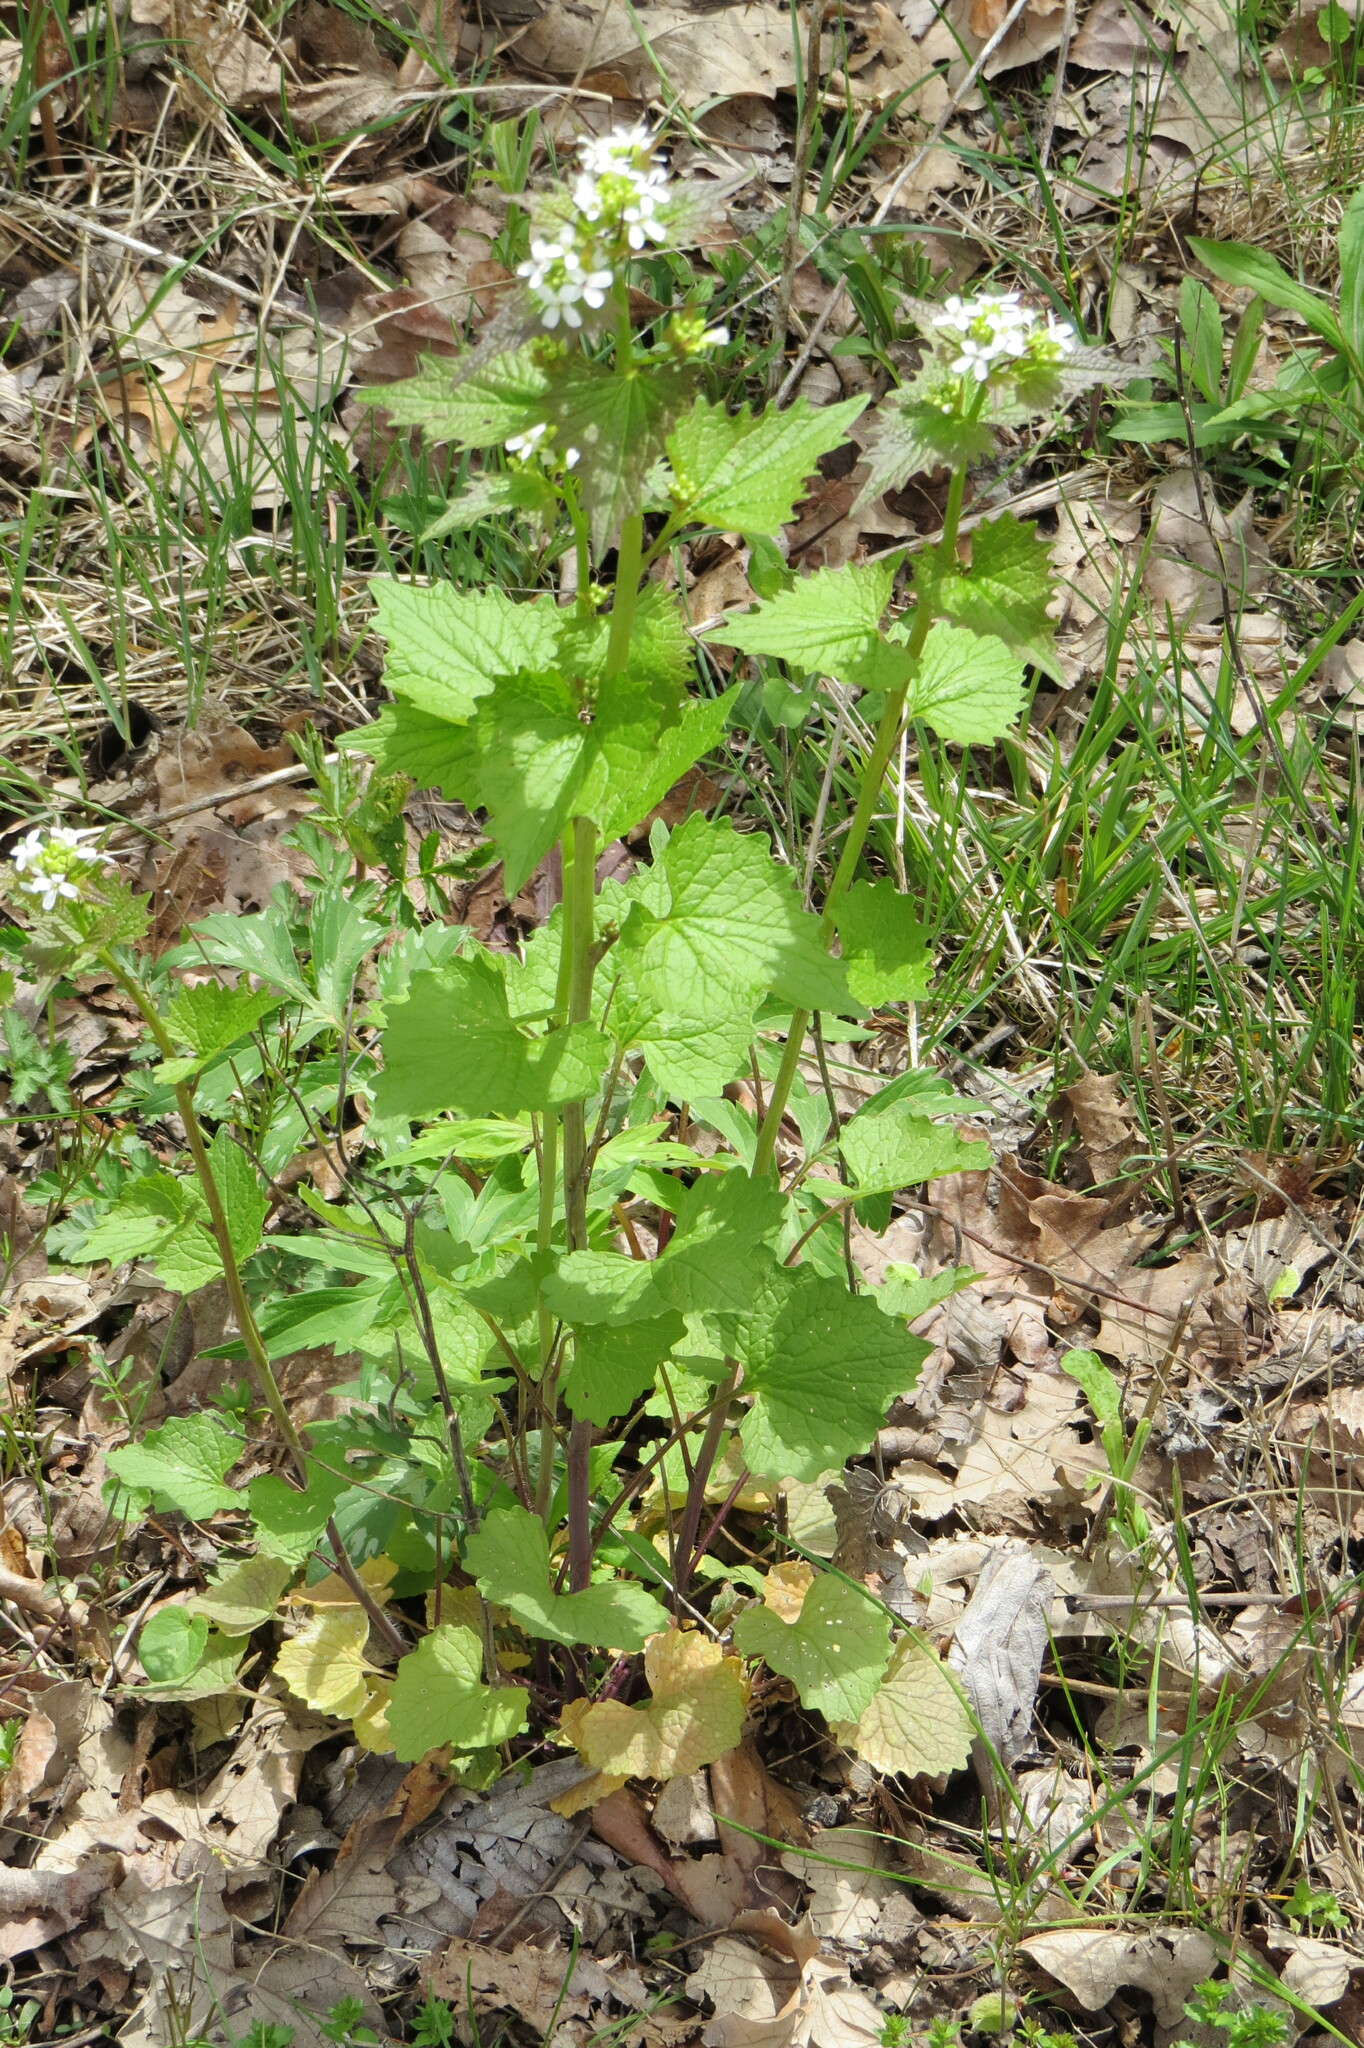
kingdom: Plantae
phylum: Tracheophyta
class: Magnoliopsida
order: Brassicales
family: Brassicaceae
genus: Alliaria
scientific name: Alliaria petiolata
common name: Garlic mustard
